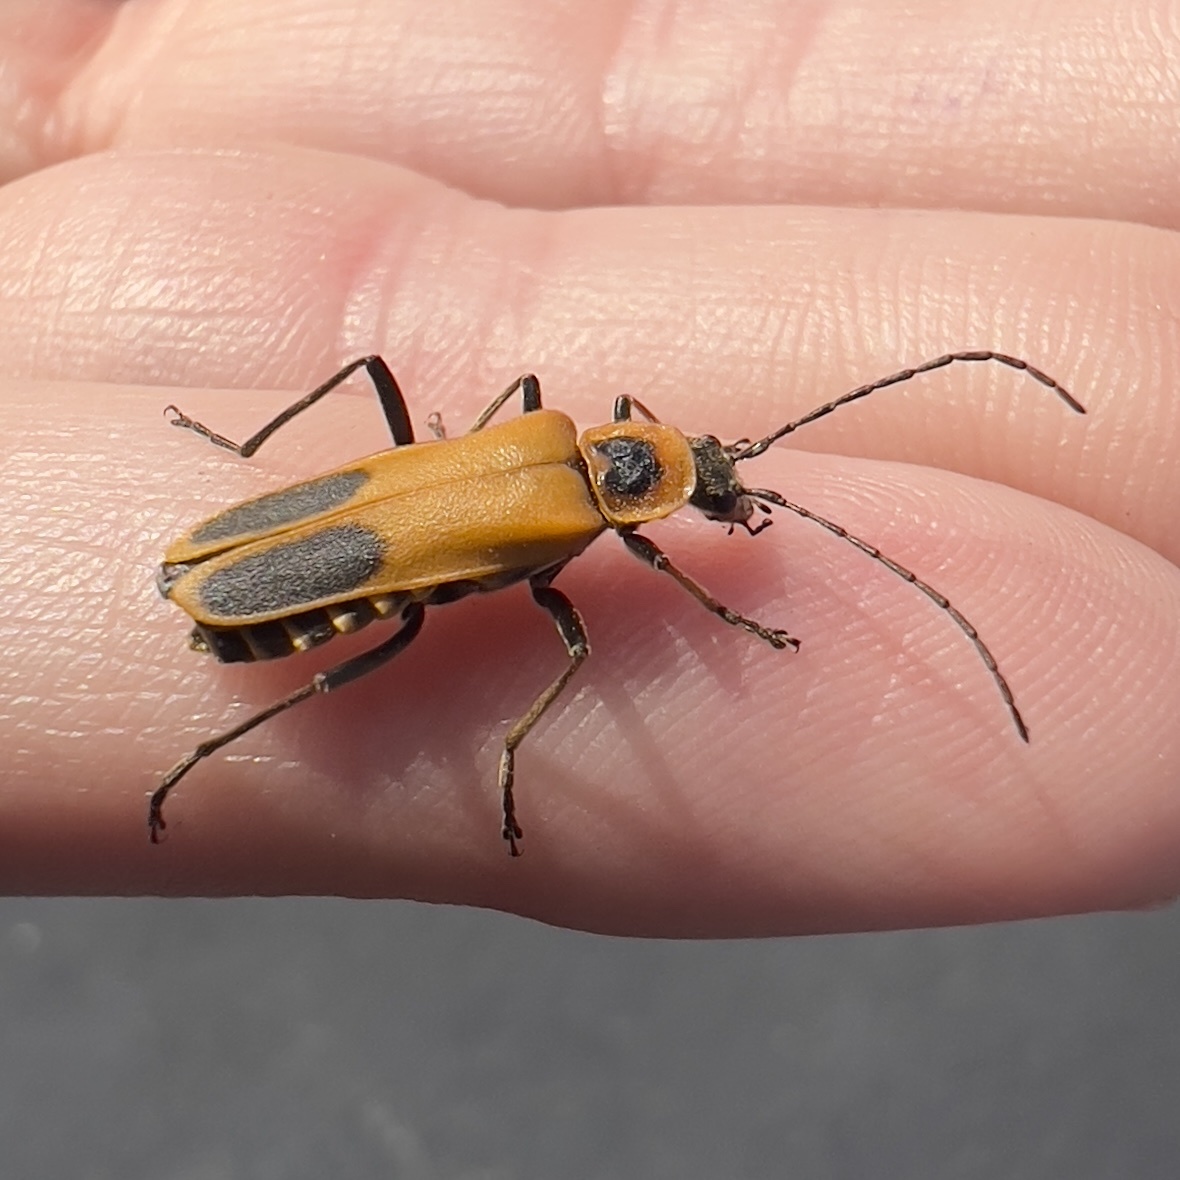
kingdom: Animalia
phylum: Arthropoda
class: Insecta
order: Coleoptera
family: Cantharidae
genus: Chauliognathus
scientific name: Chauliognathus pensylvanicus
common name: Goldenrod soldier beetle
